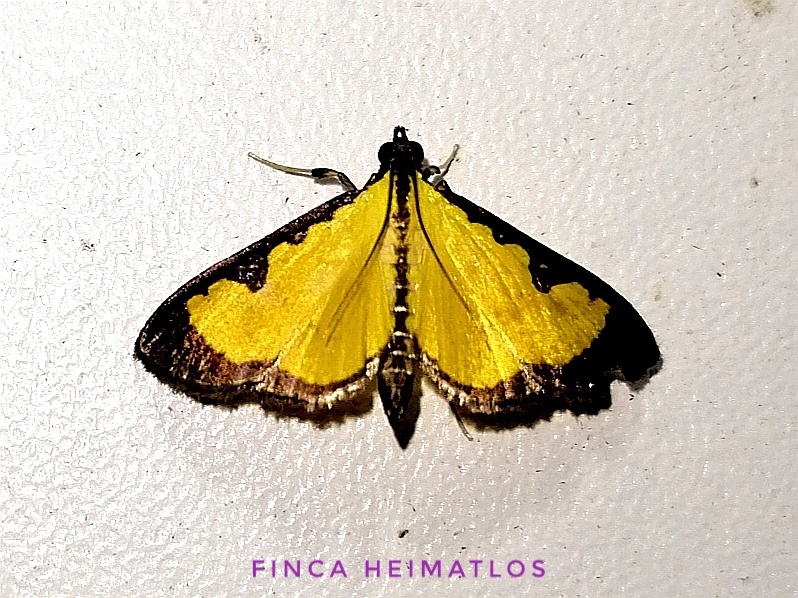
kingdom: Animalia
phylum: Arthropoda
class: Insecta
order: Lepidoptera
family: Crambidae
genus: Goniorhynchus
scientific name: Goniorhynchus
